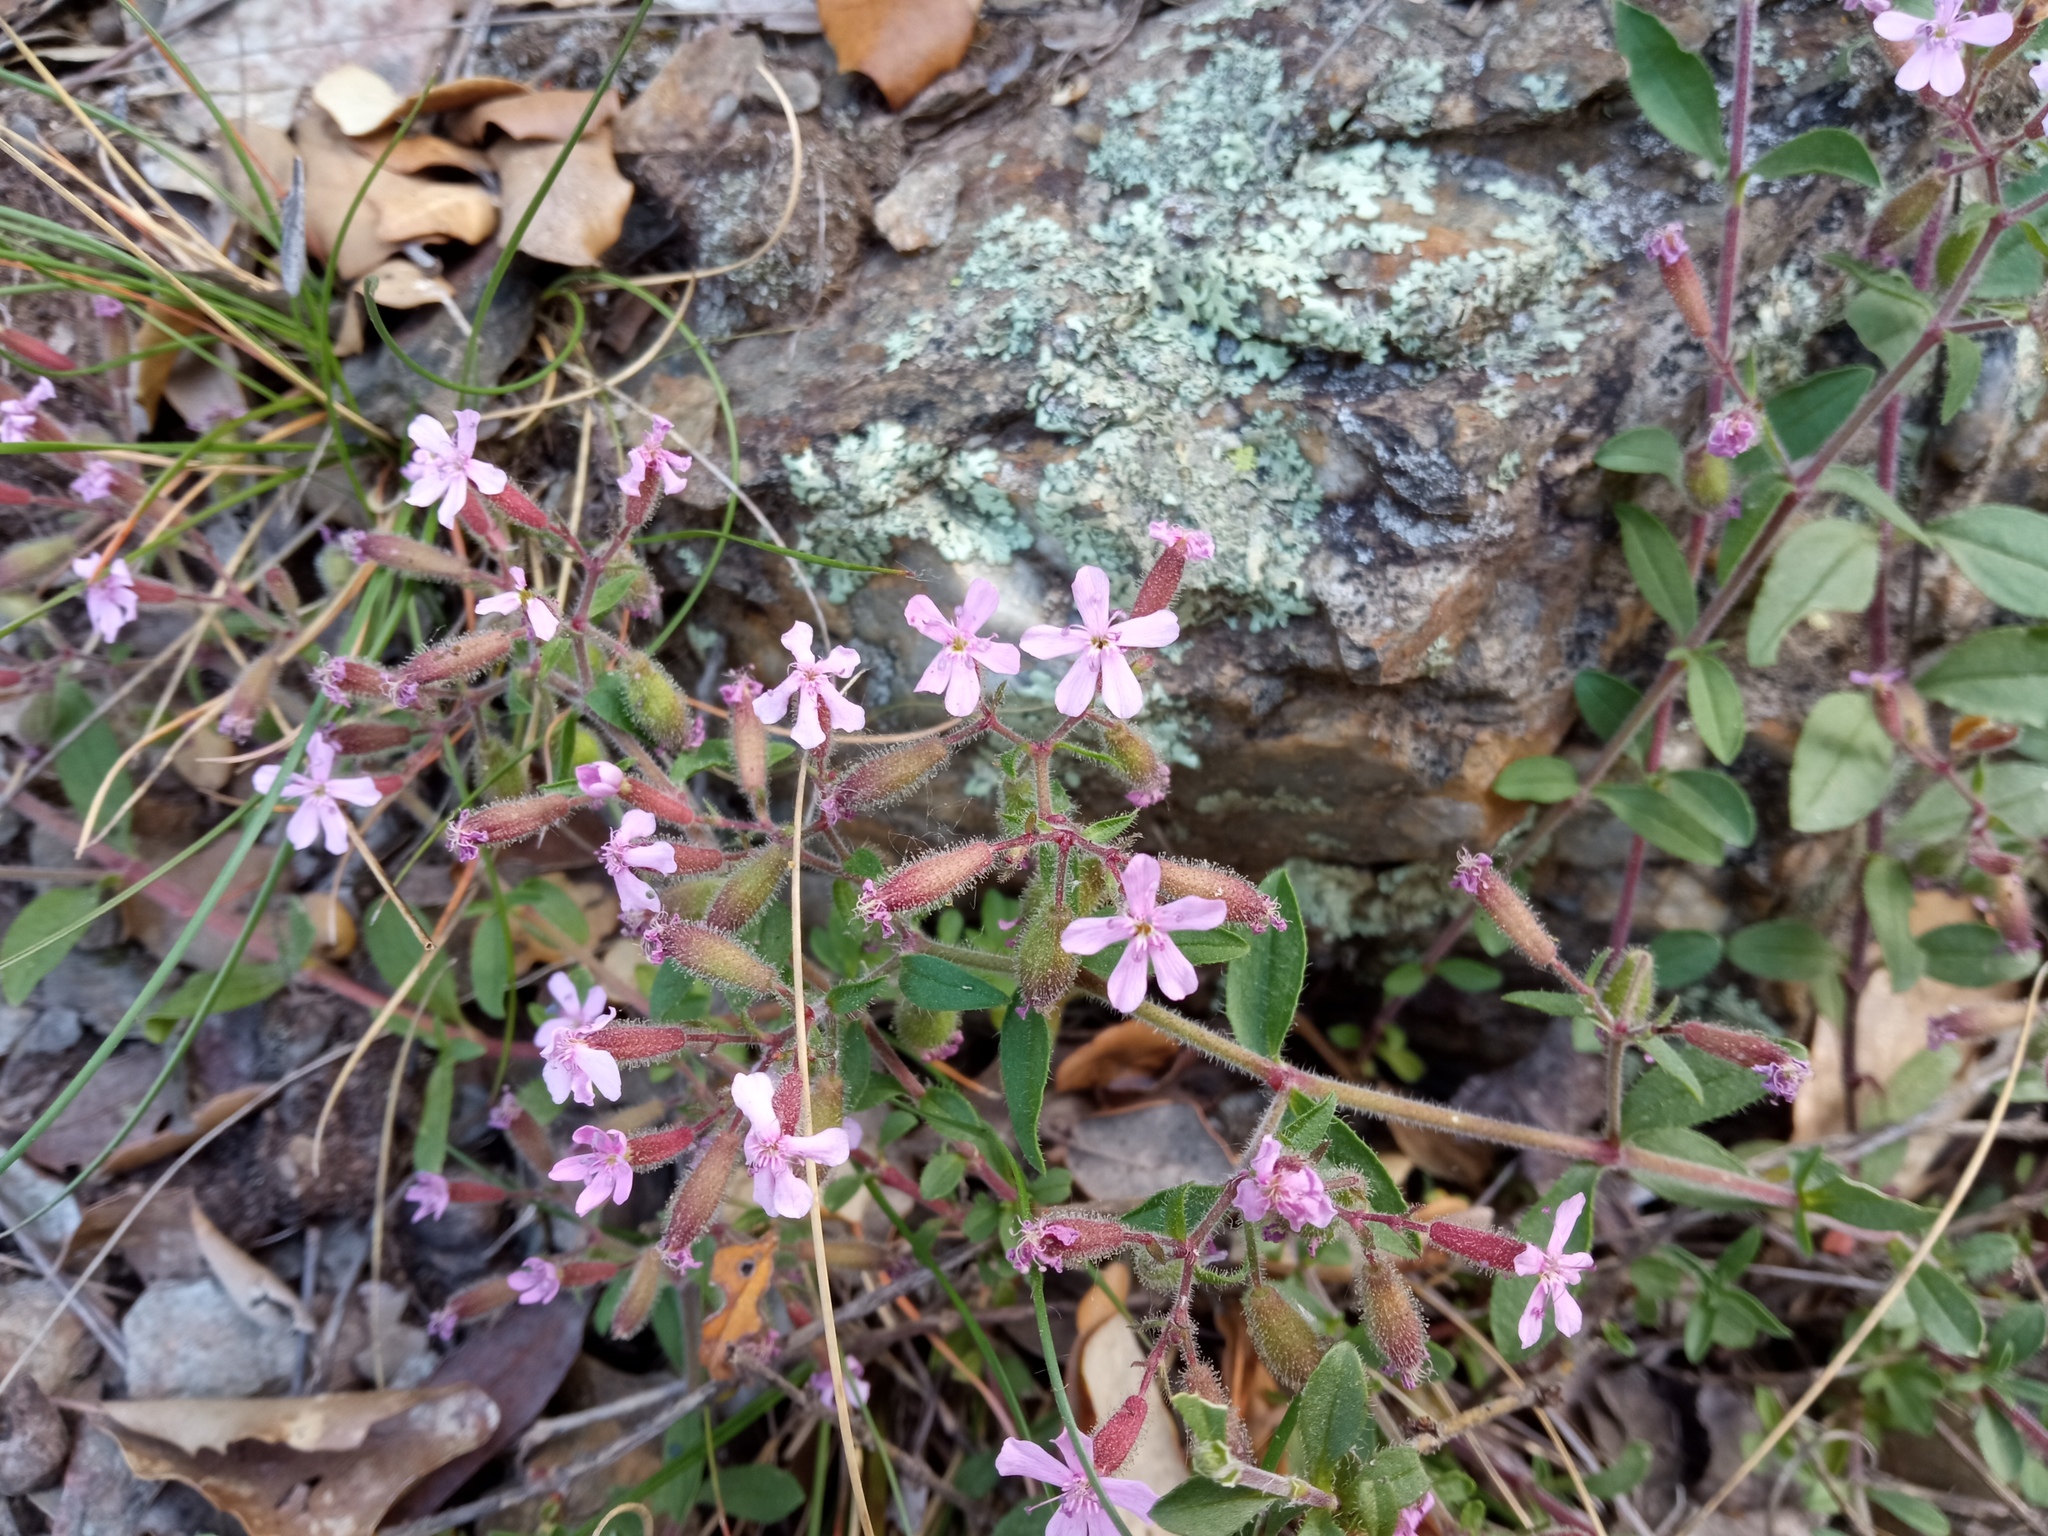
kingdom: Plantae
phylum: Tracheophyta
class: Magnoliopsida
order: Caryophyllales
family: Caryophyllaceae
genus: Saponaria
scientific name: Saponaria ocymoides
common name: Rock soapwort
